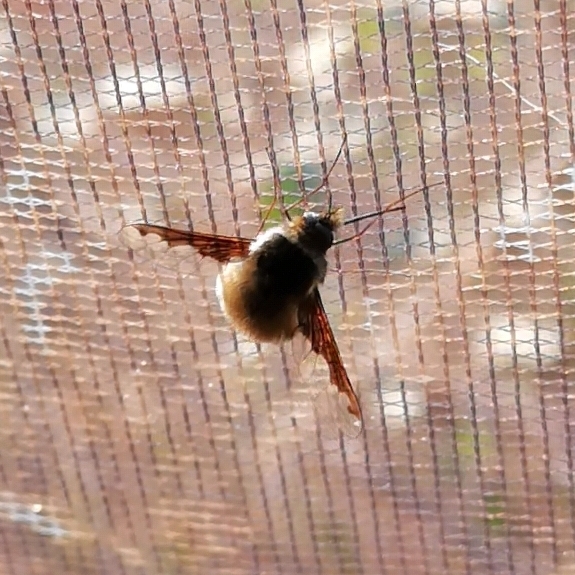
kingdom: Animalia
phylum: Arthropoda
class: Insecta
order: Diptera
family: Bombyliidae
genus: Bombylius
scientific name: Bombylius major
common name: Bee fly
